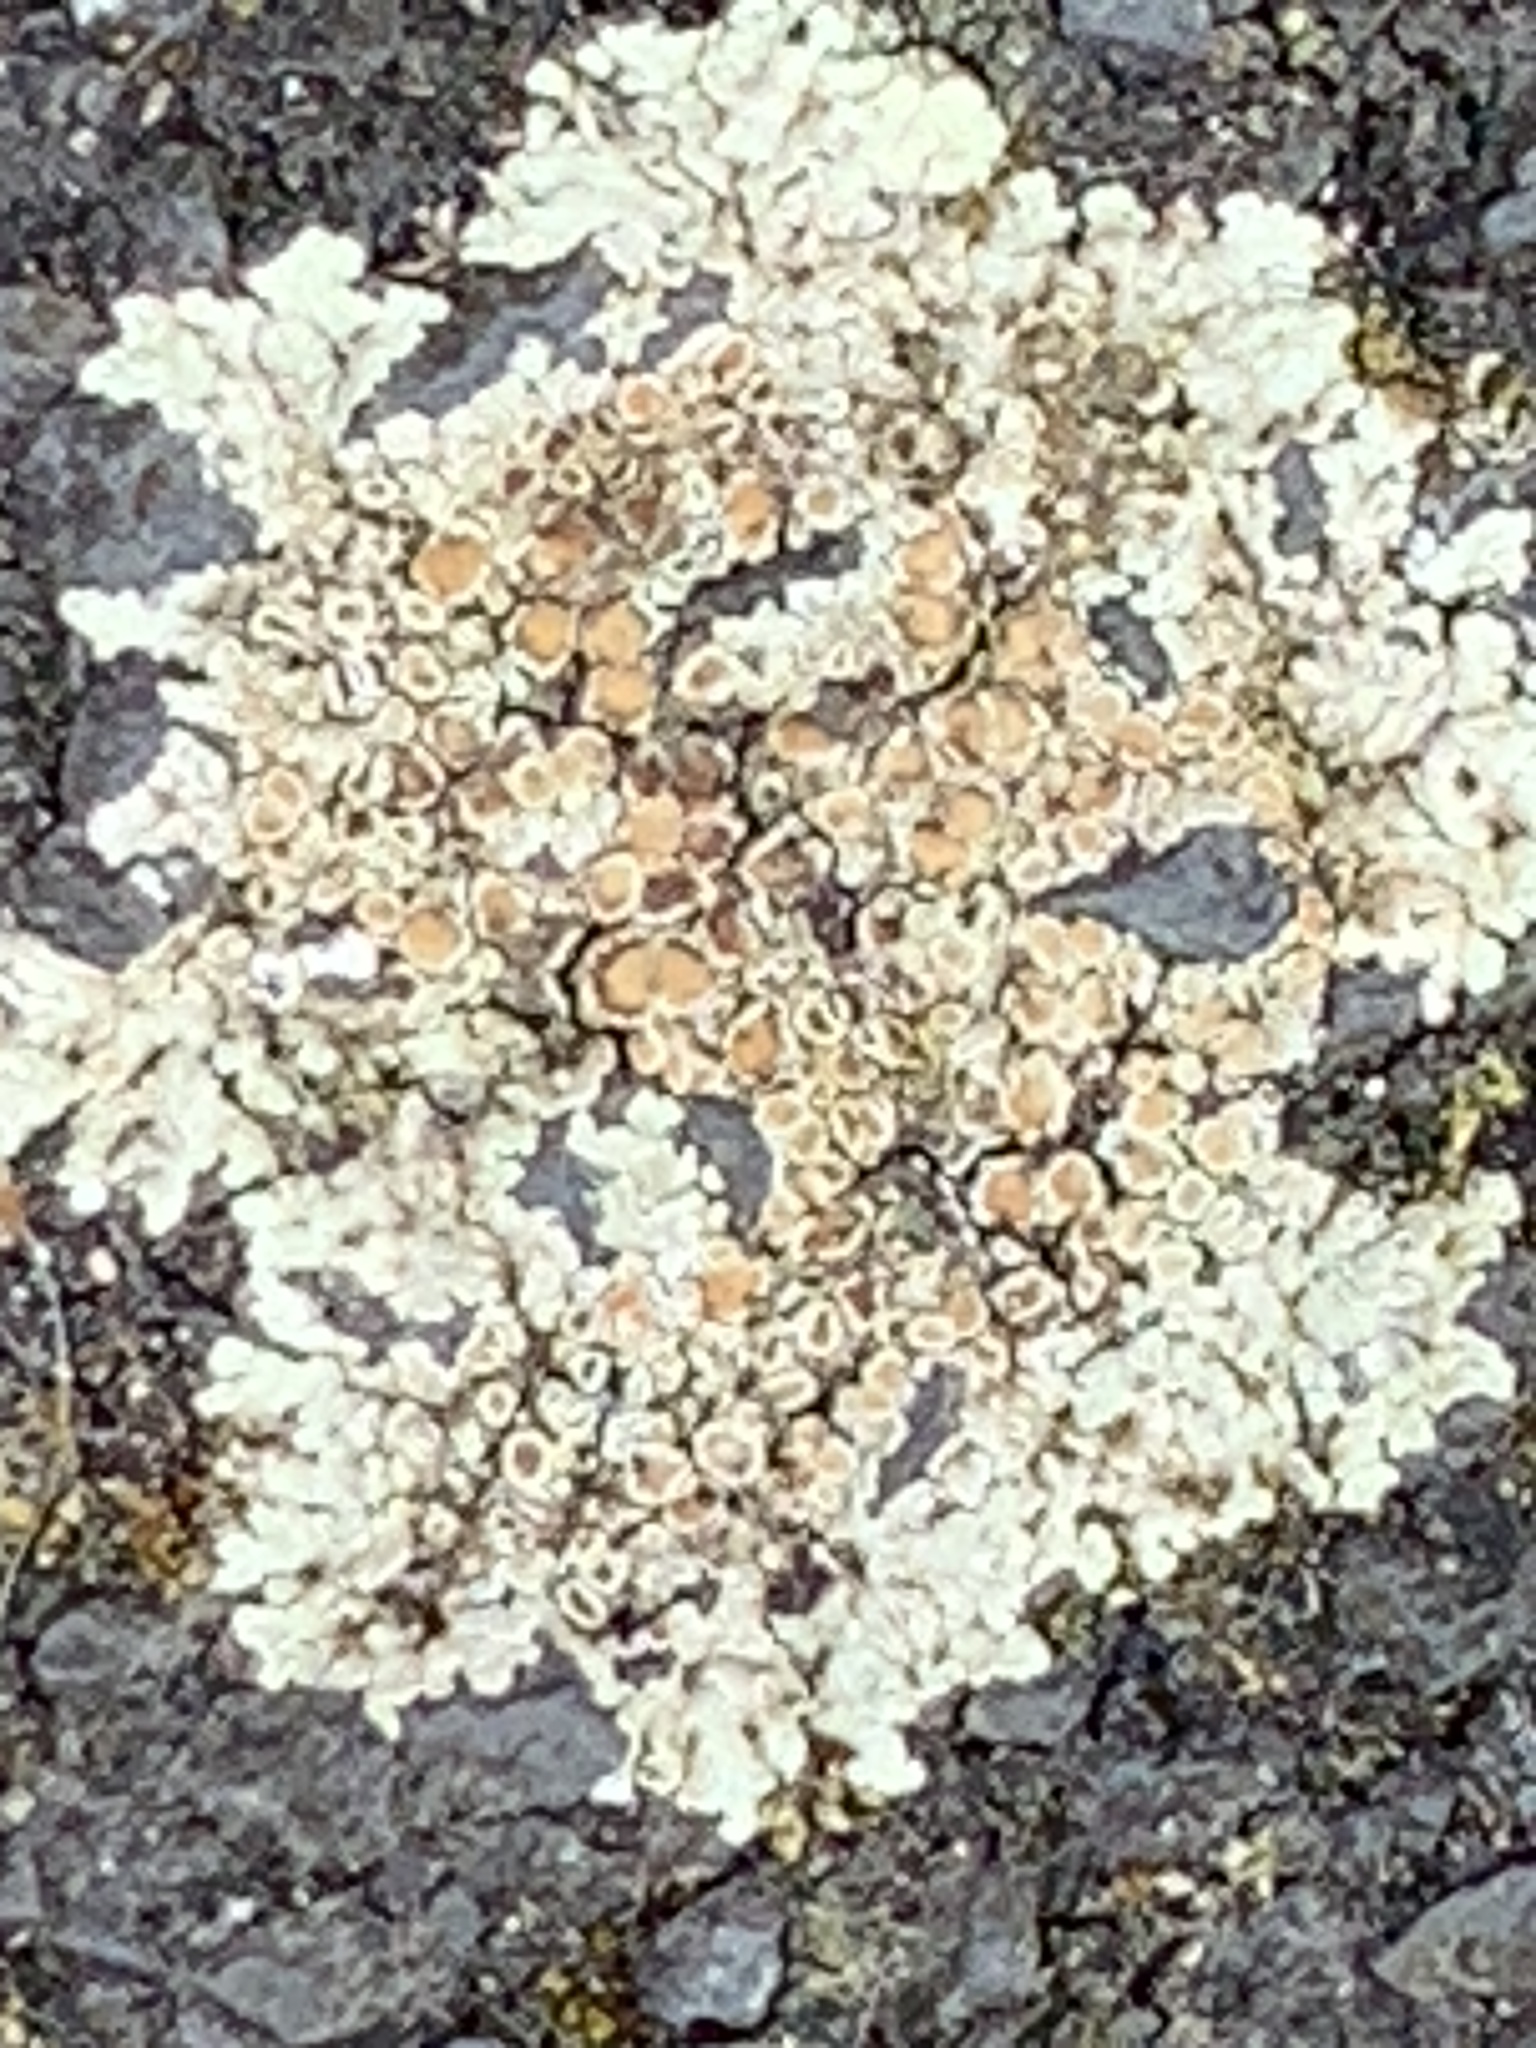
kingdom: Fungi
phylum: Ascomycota
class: Lecanoromycetes
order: Lecanorales
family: Lecanoraceae
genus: Protoparmeliopsis
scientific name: Protoparmeliopsis muralis
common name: Stonewall rim lichen
